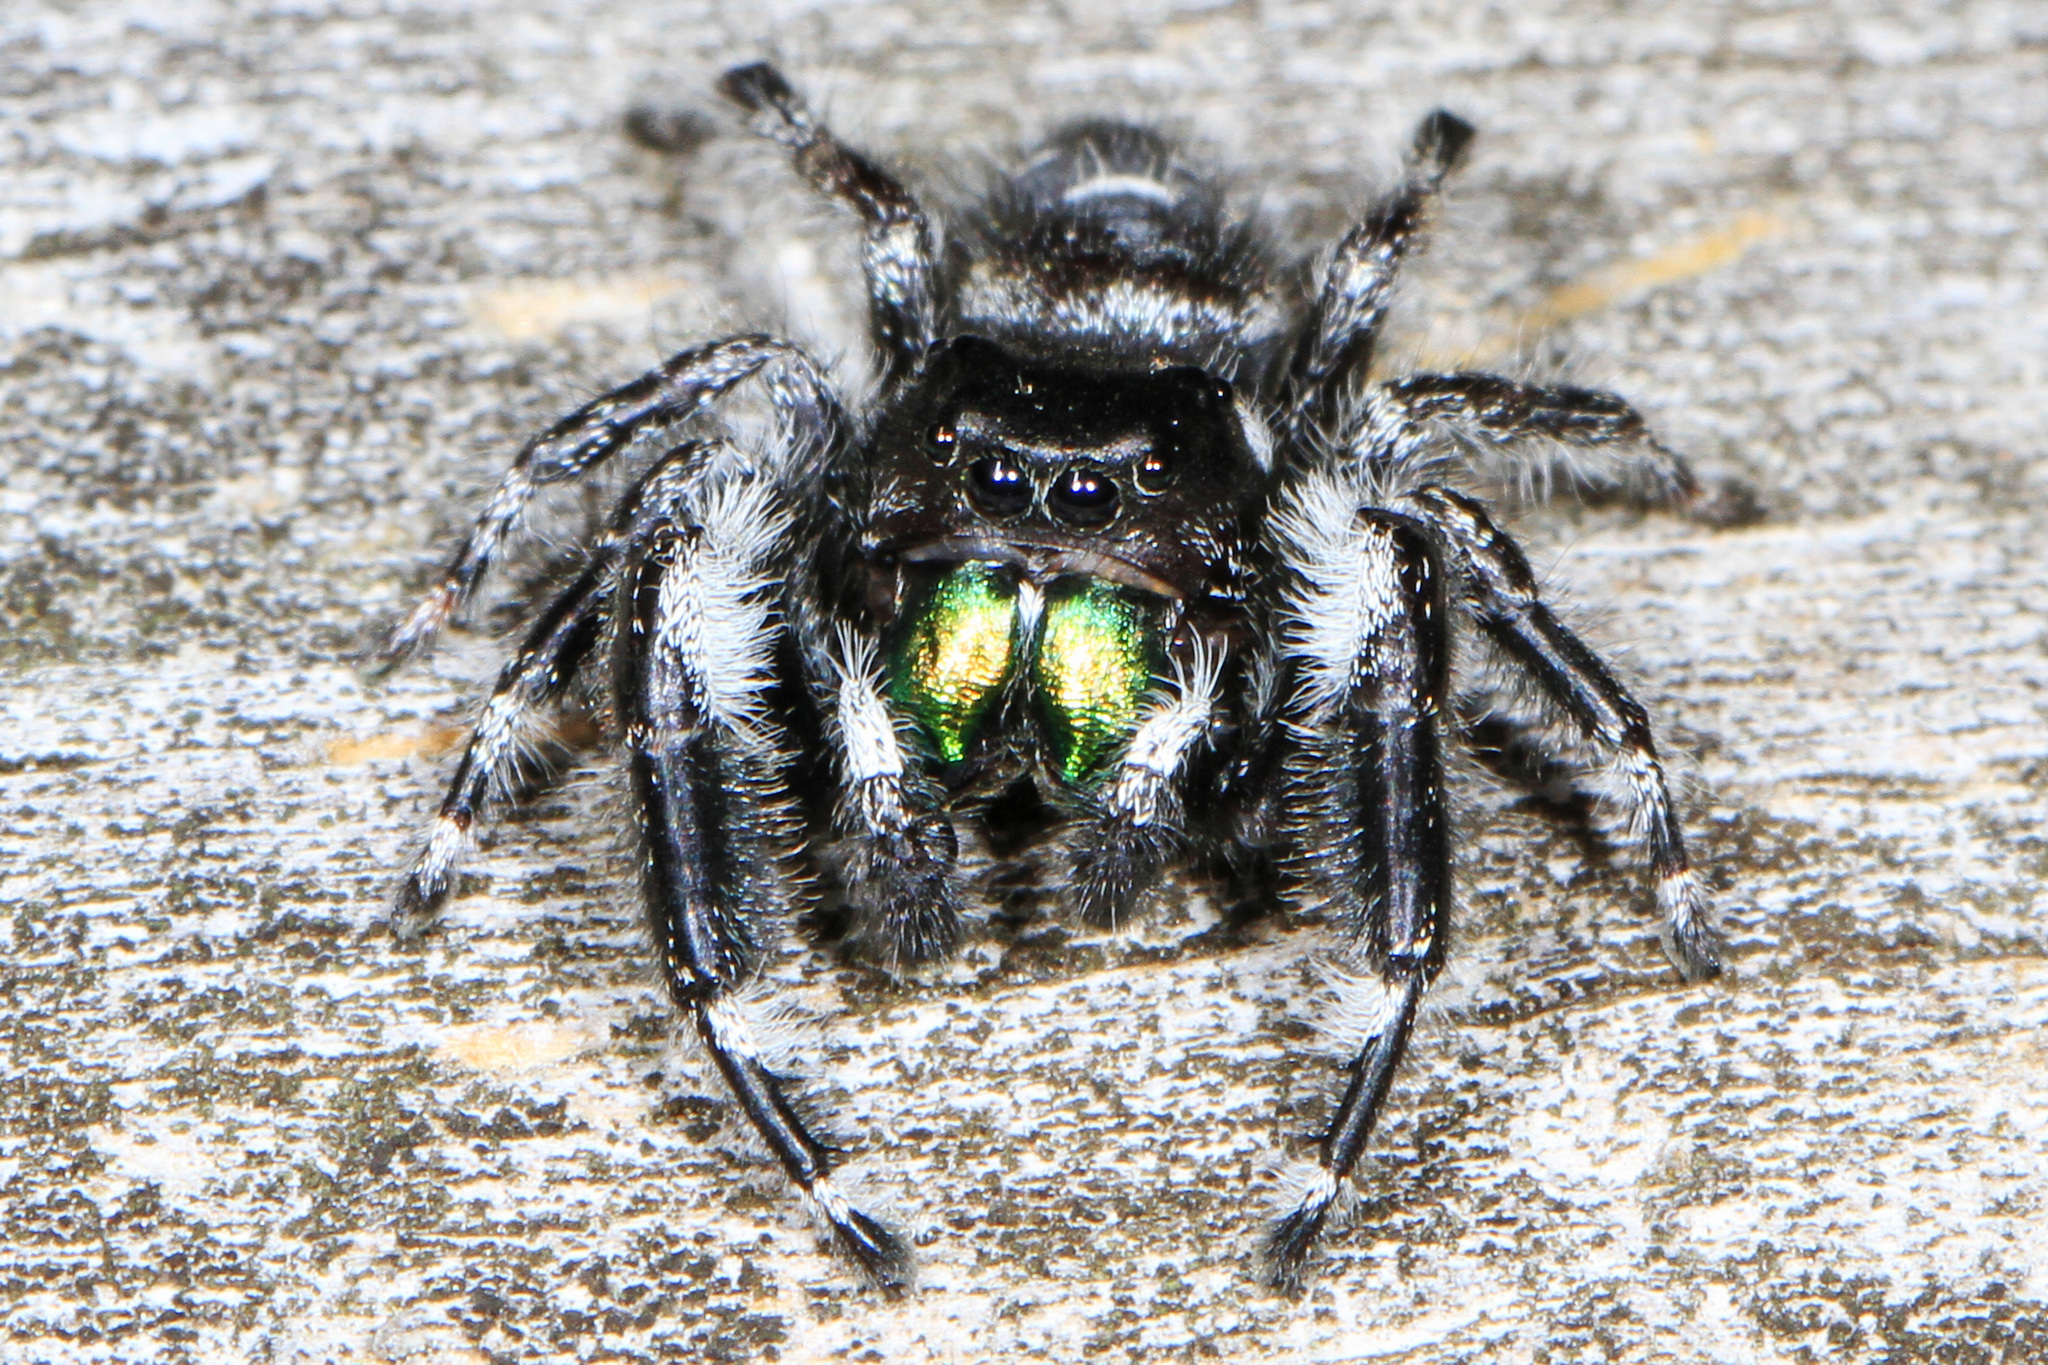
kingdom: Animalia
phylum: Arthropoda
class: Arachnida
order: Araneae
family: Salticidae
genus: Phidippus
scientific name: Phidippus audax
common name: Bold jumper
